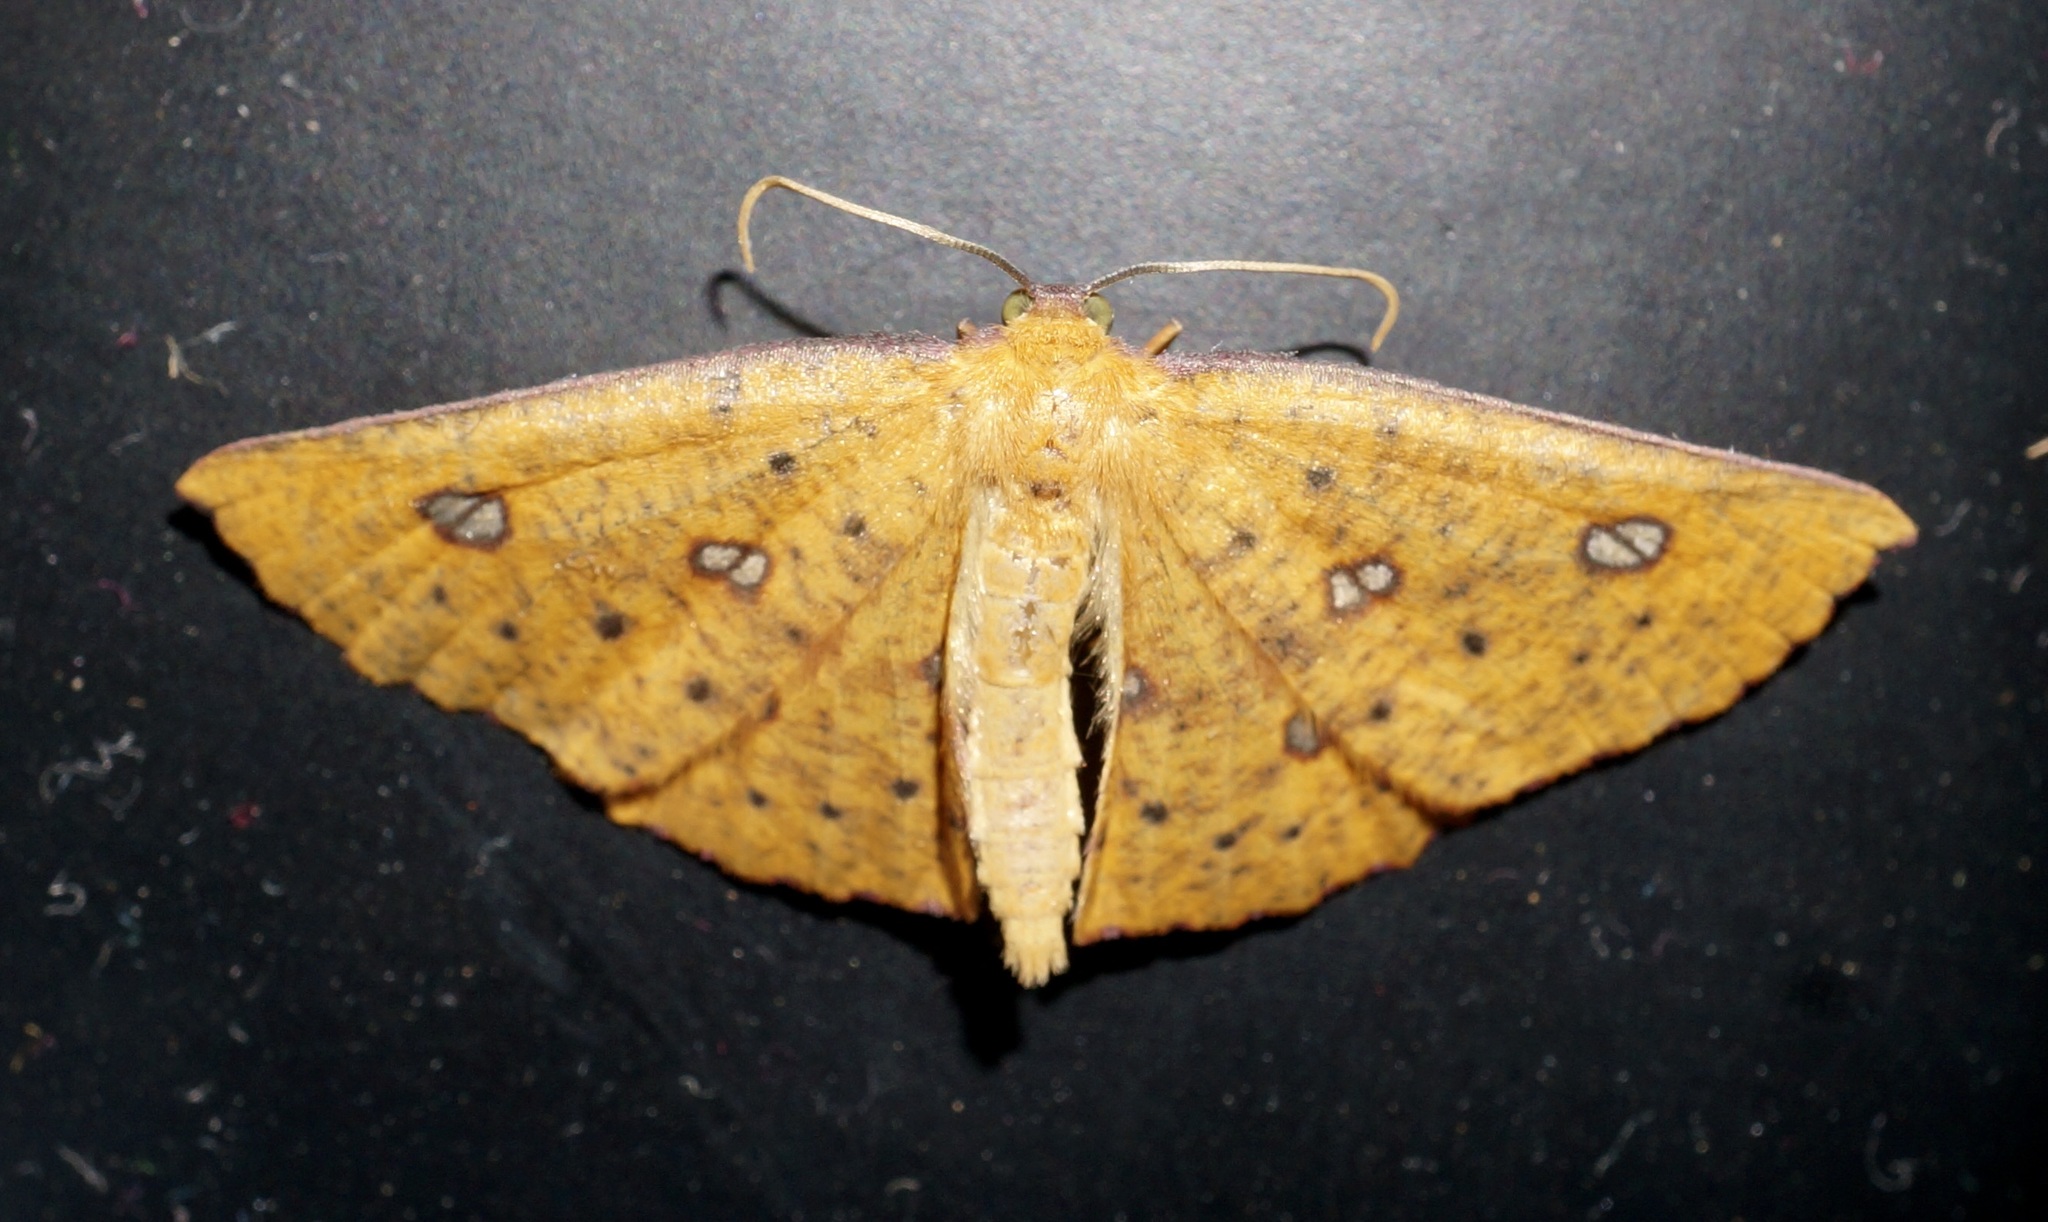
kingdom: Animalia
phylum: Arthropoda
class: Insecta
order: Lepidoptera
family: Geometridae
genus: Xyridacma
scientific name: Xyridacma alectoraria
